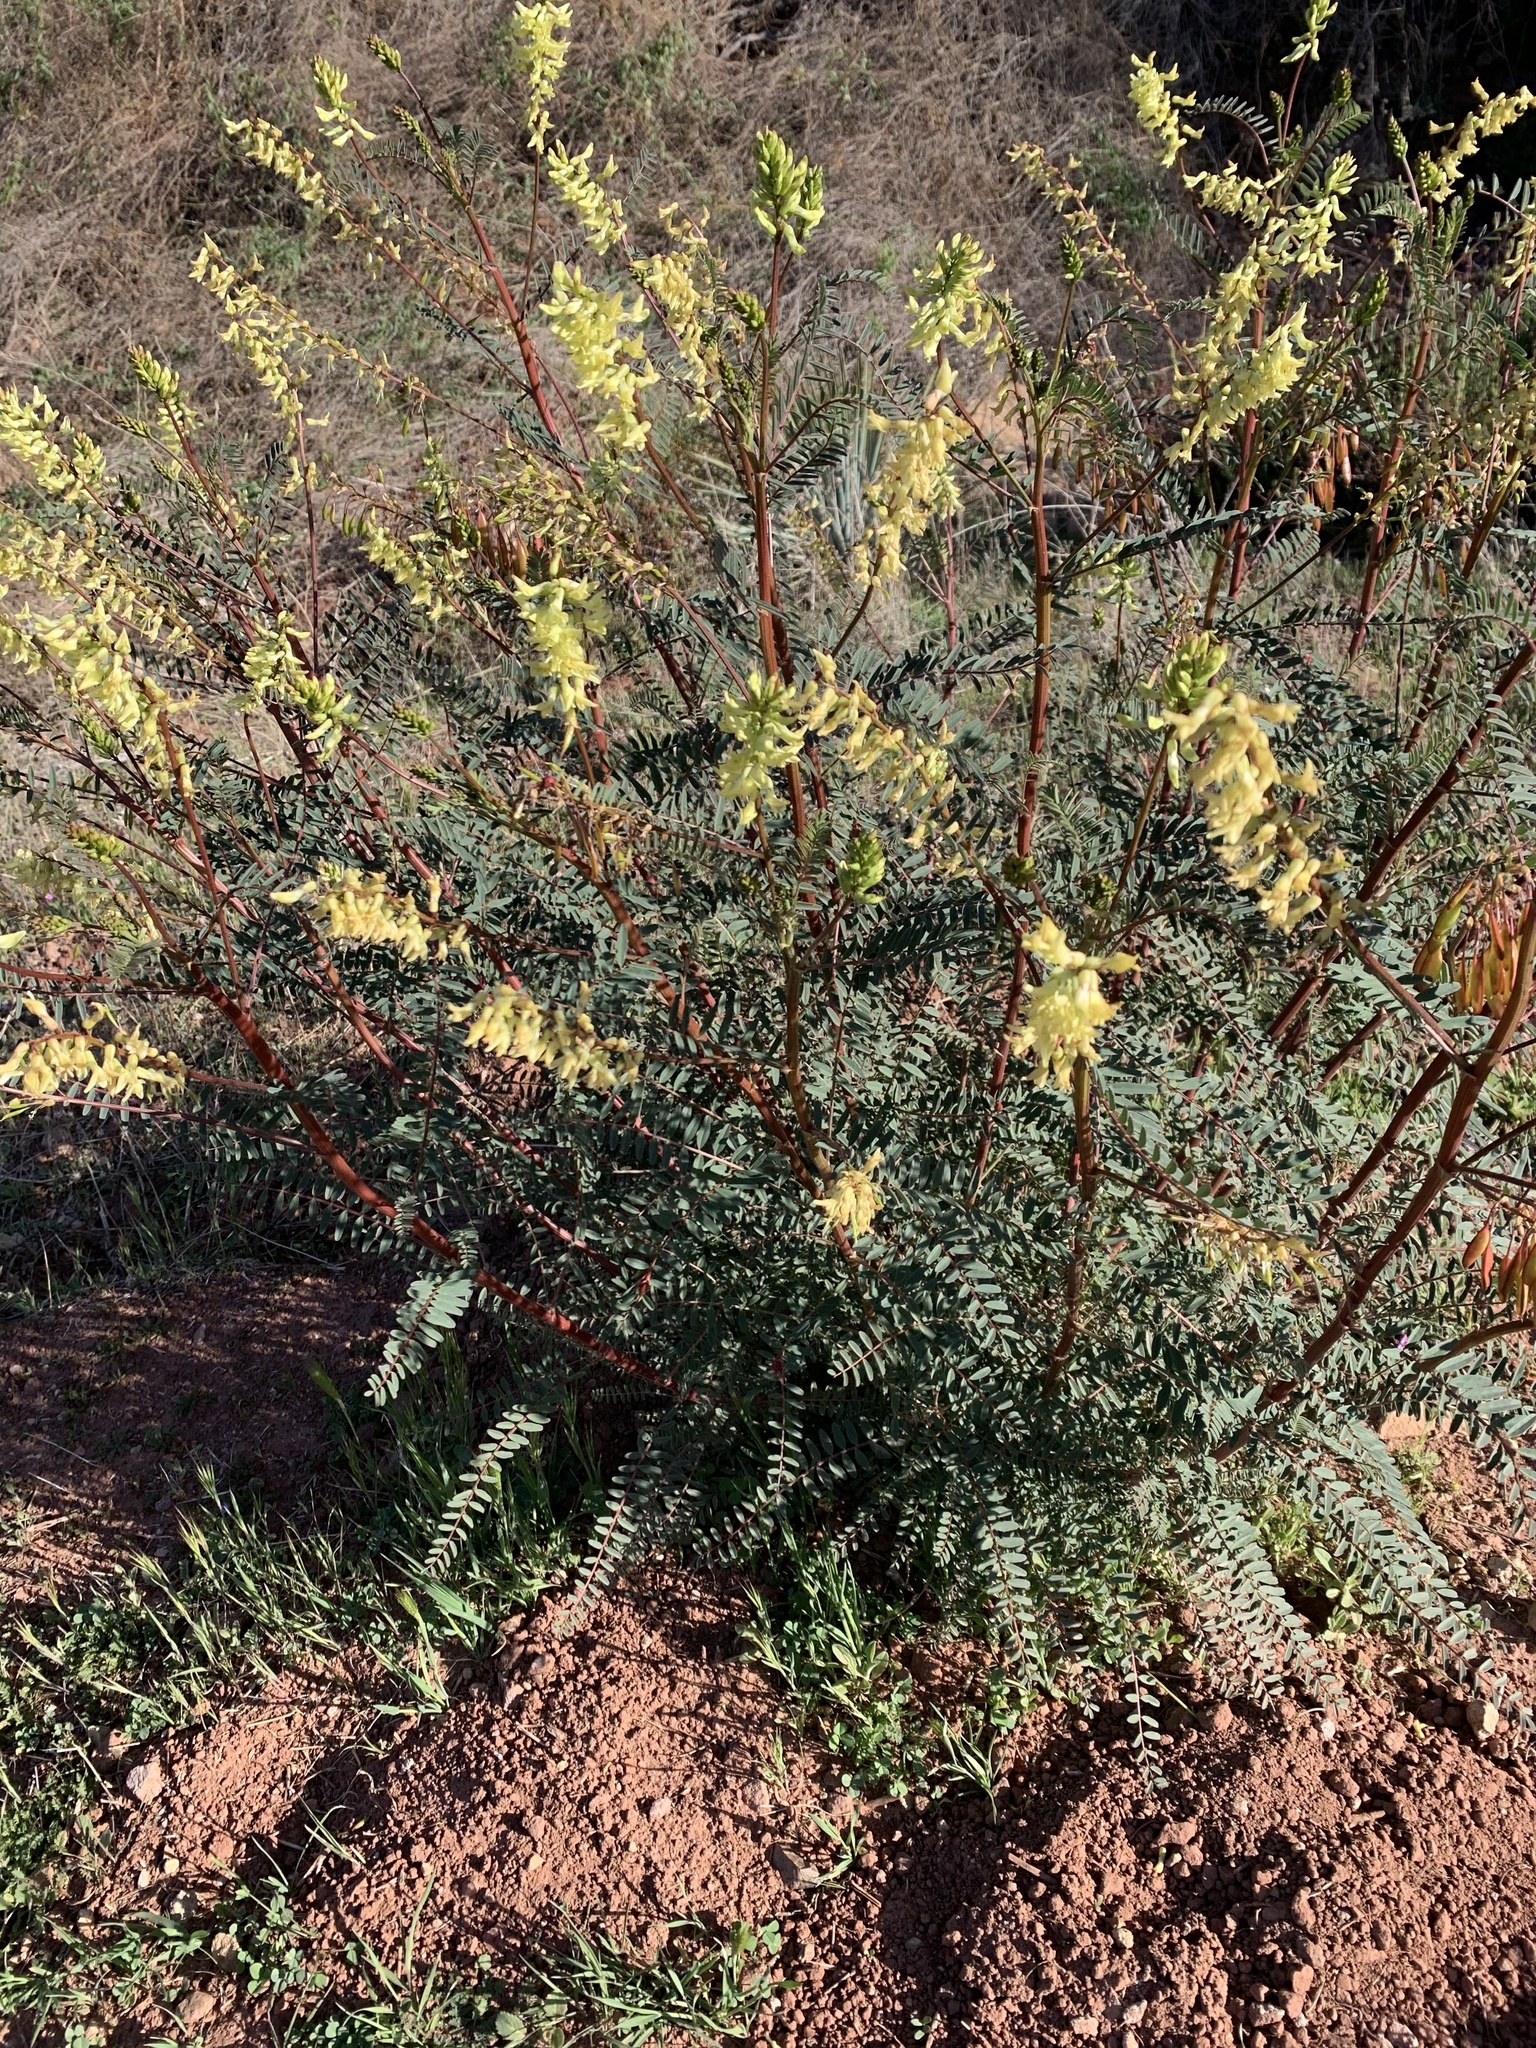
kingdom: Plantae
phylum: Tracheophyta
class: Magnoliopsida
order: Fabales
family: Fabaceae
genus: Astragalus
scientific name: Astragalus trichopodus
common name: Santa barbara milk-vetch
